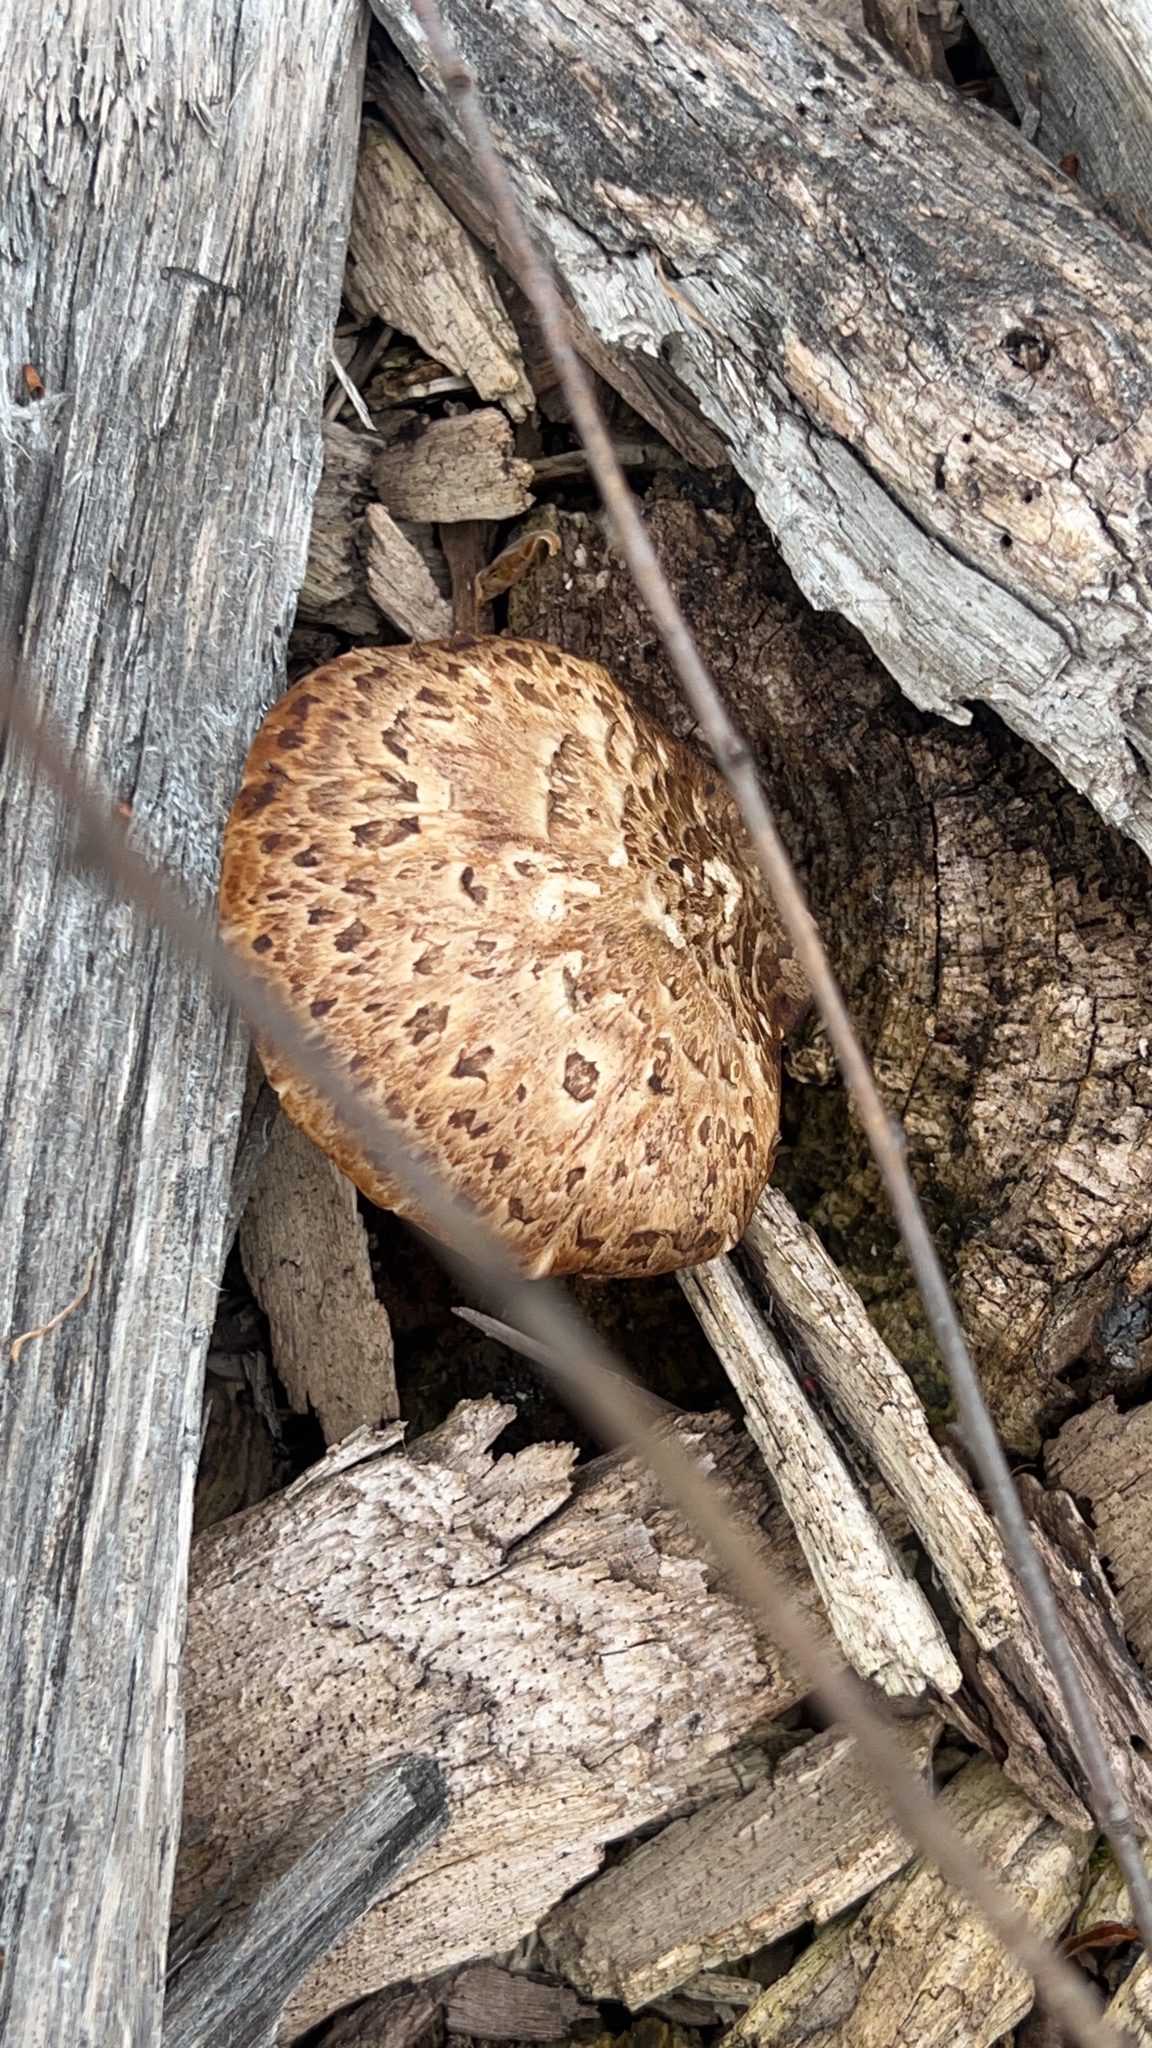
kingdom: Fungi
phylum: Basidiomycota
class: Agaricomycetes
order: Polyporales
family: Polyporaceae
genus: Cerioporus
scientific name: Cerioporus squamosus
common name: Dryad's saddle
